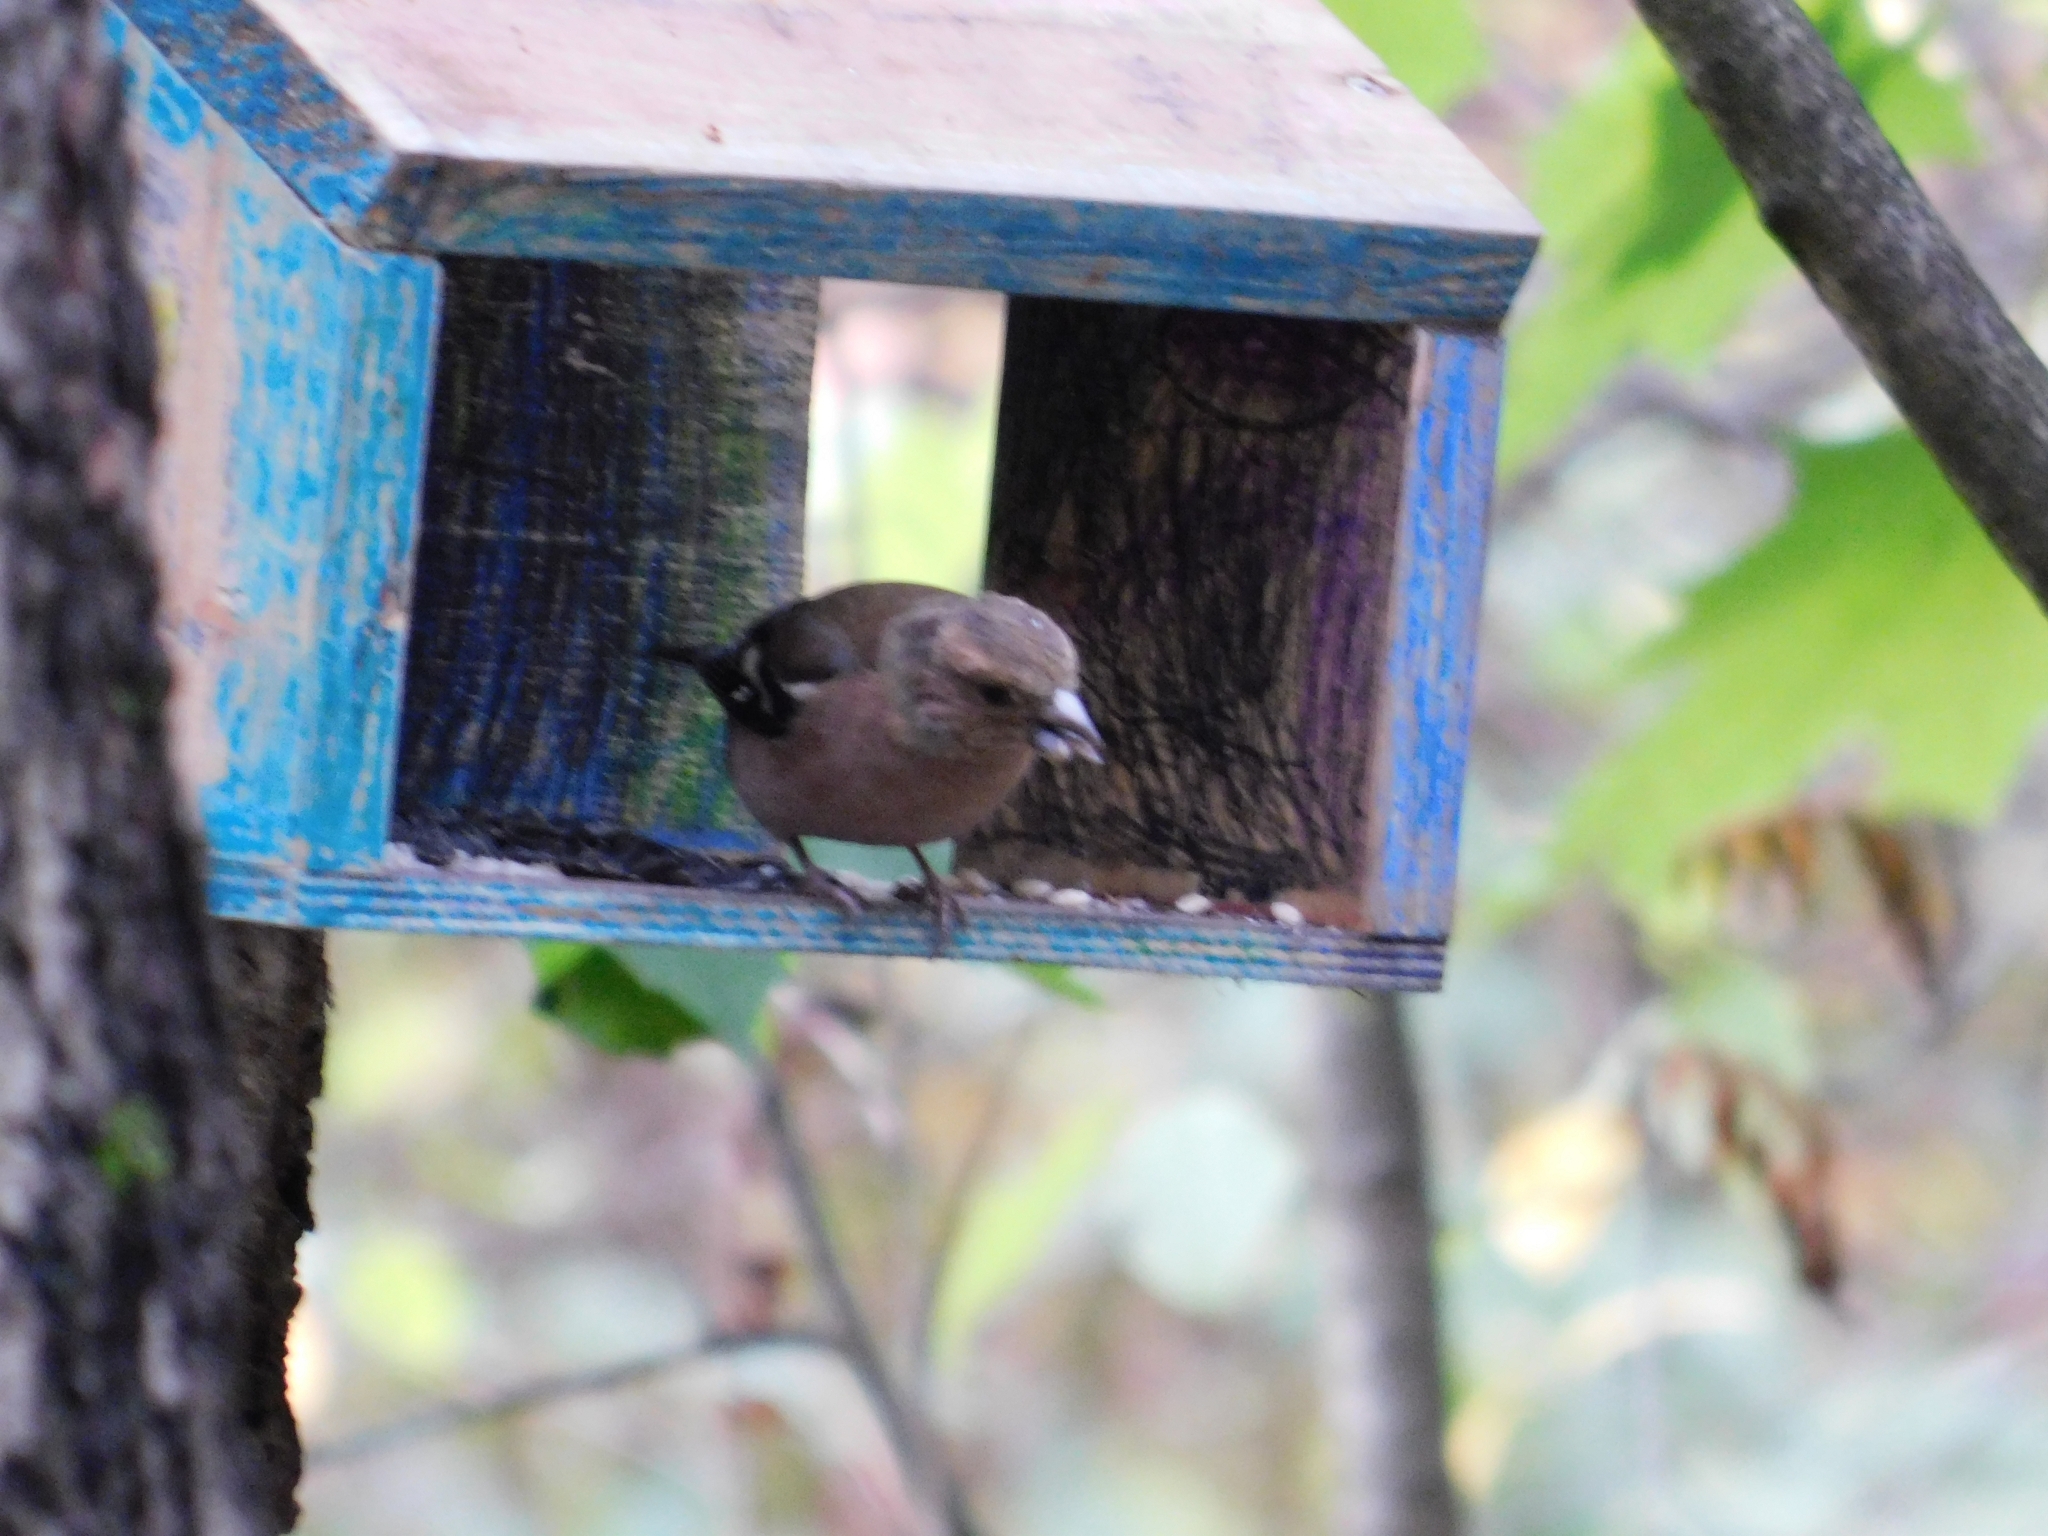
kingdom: Animalia
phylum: Chordata
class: Aves
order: Passeriformes
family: Fringillidae
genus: Fringilla
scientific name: Fringilla coelebs
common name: Common chaffinch
